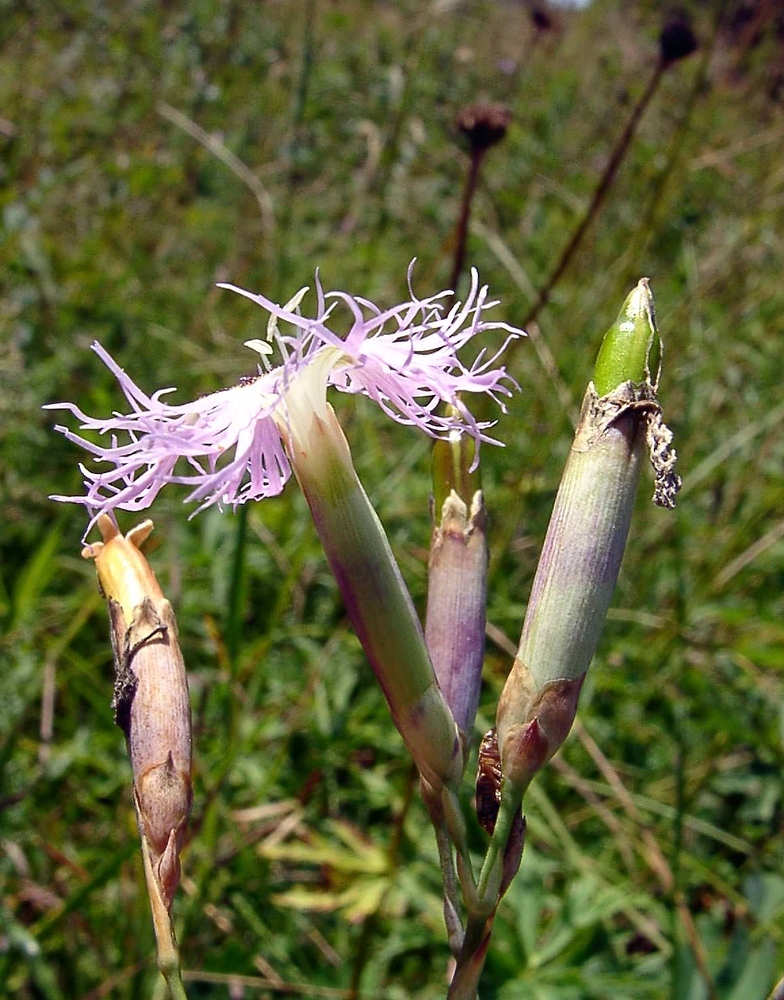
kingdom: Plantae
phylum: Tracheophyta
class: Magnoliopsida
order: Caryophyllales
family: Caryophyllaceae
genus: Dianthus
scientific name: Dianthus superbus
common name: Fringed pink
